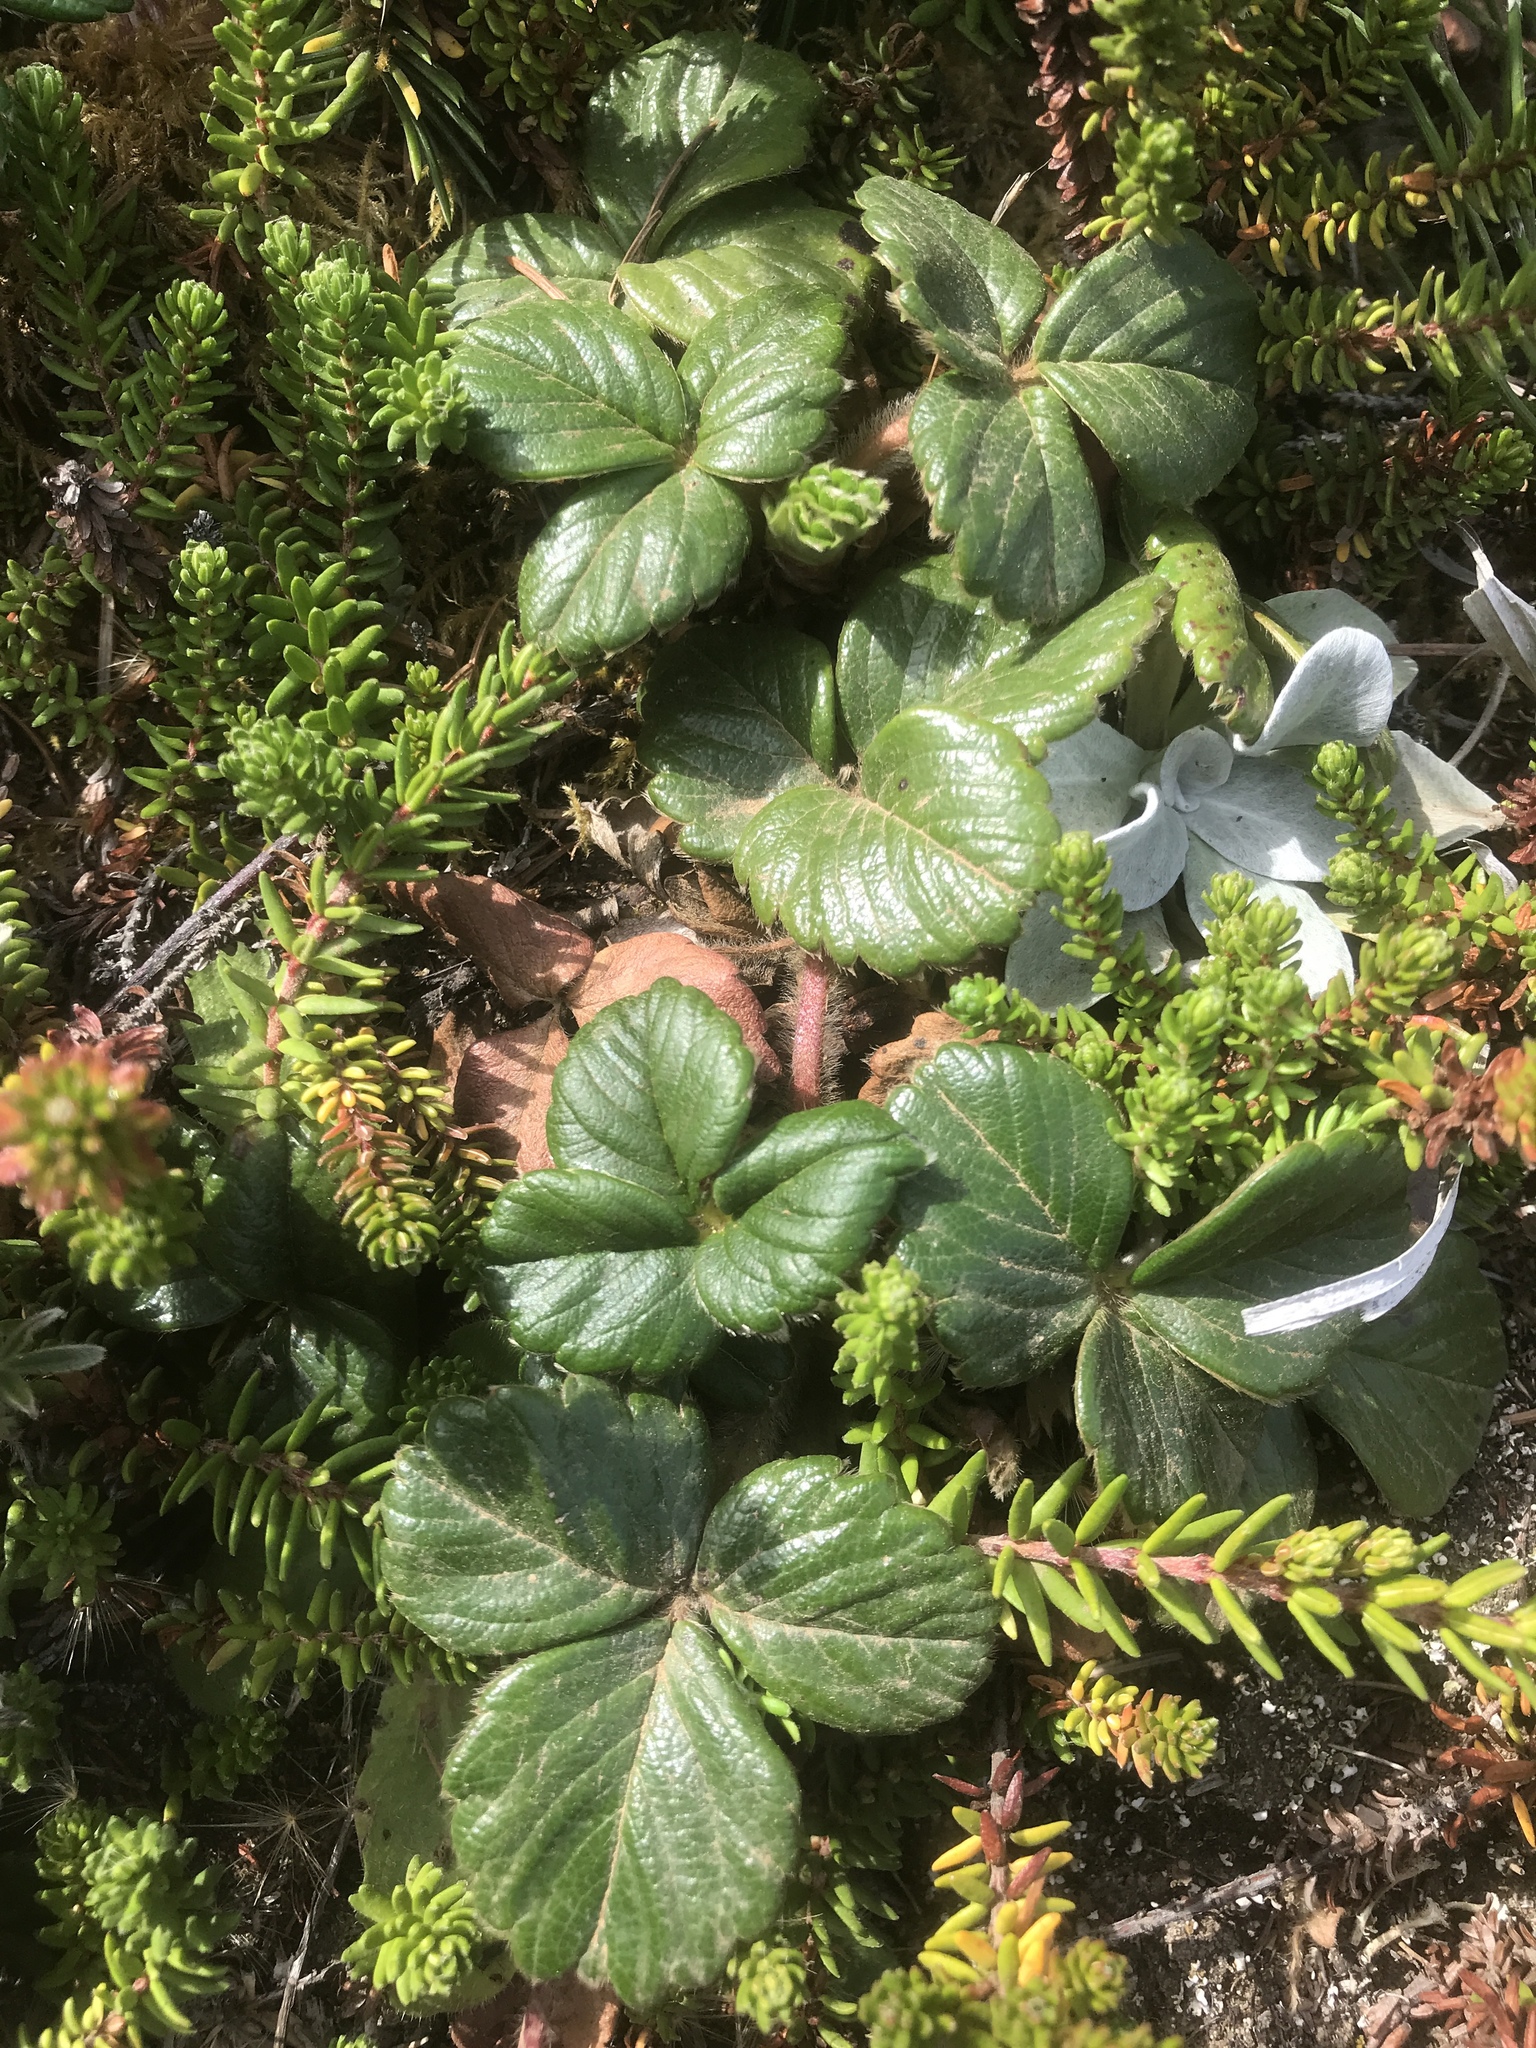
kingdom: Plantae
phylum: Tracheophyta
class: Magnoliopsida
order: Rosales
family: Rosaceae
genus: Fragaria
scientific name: Fragaria chiloensis
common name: Beach strawberry
